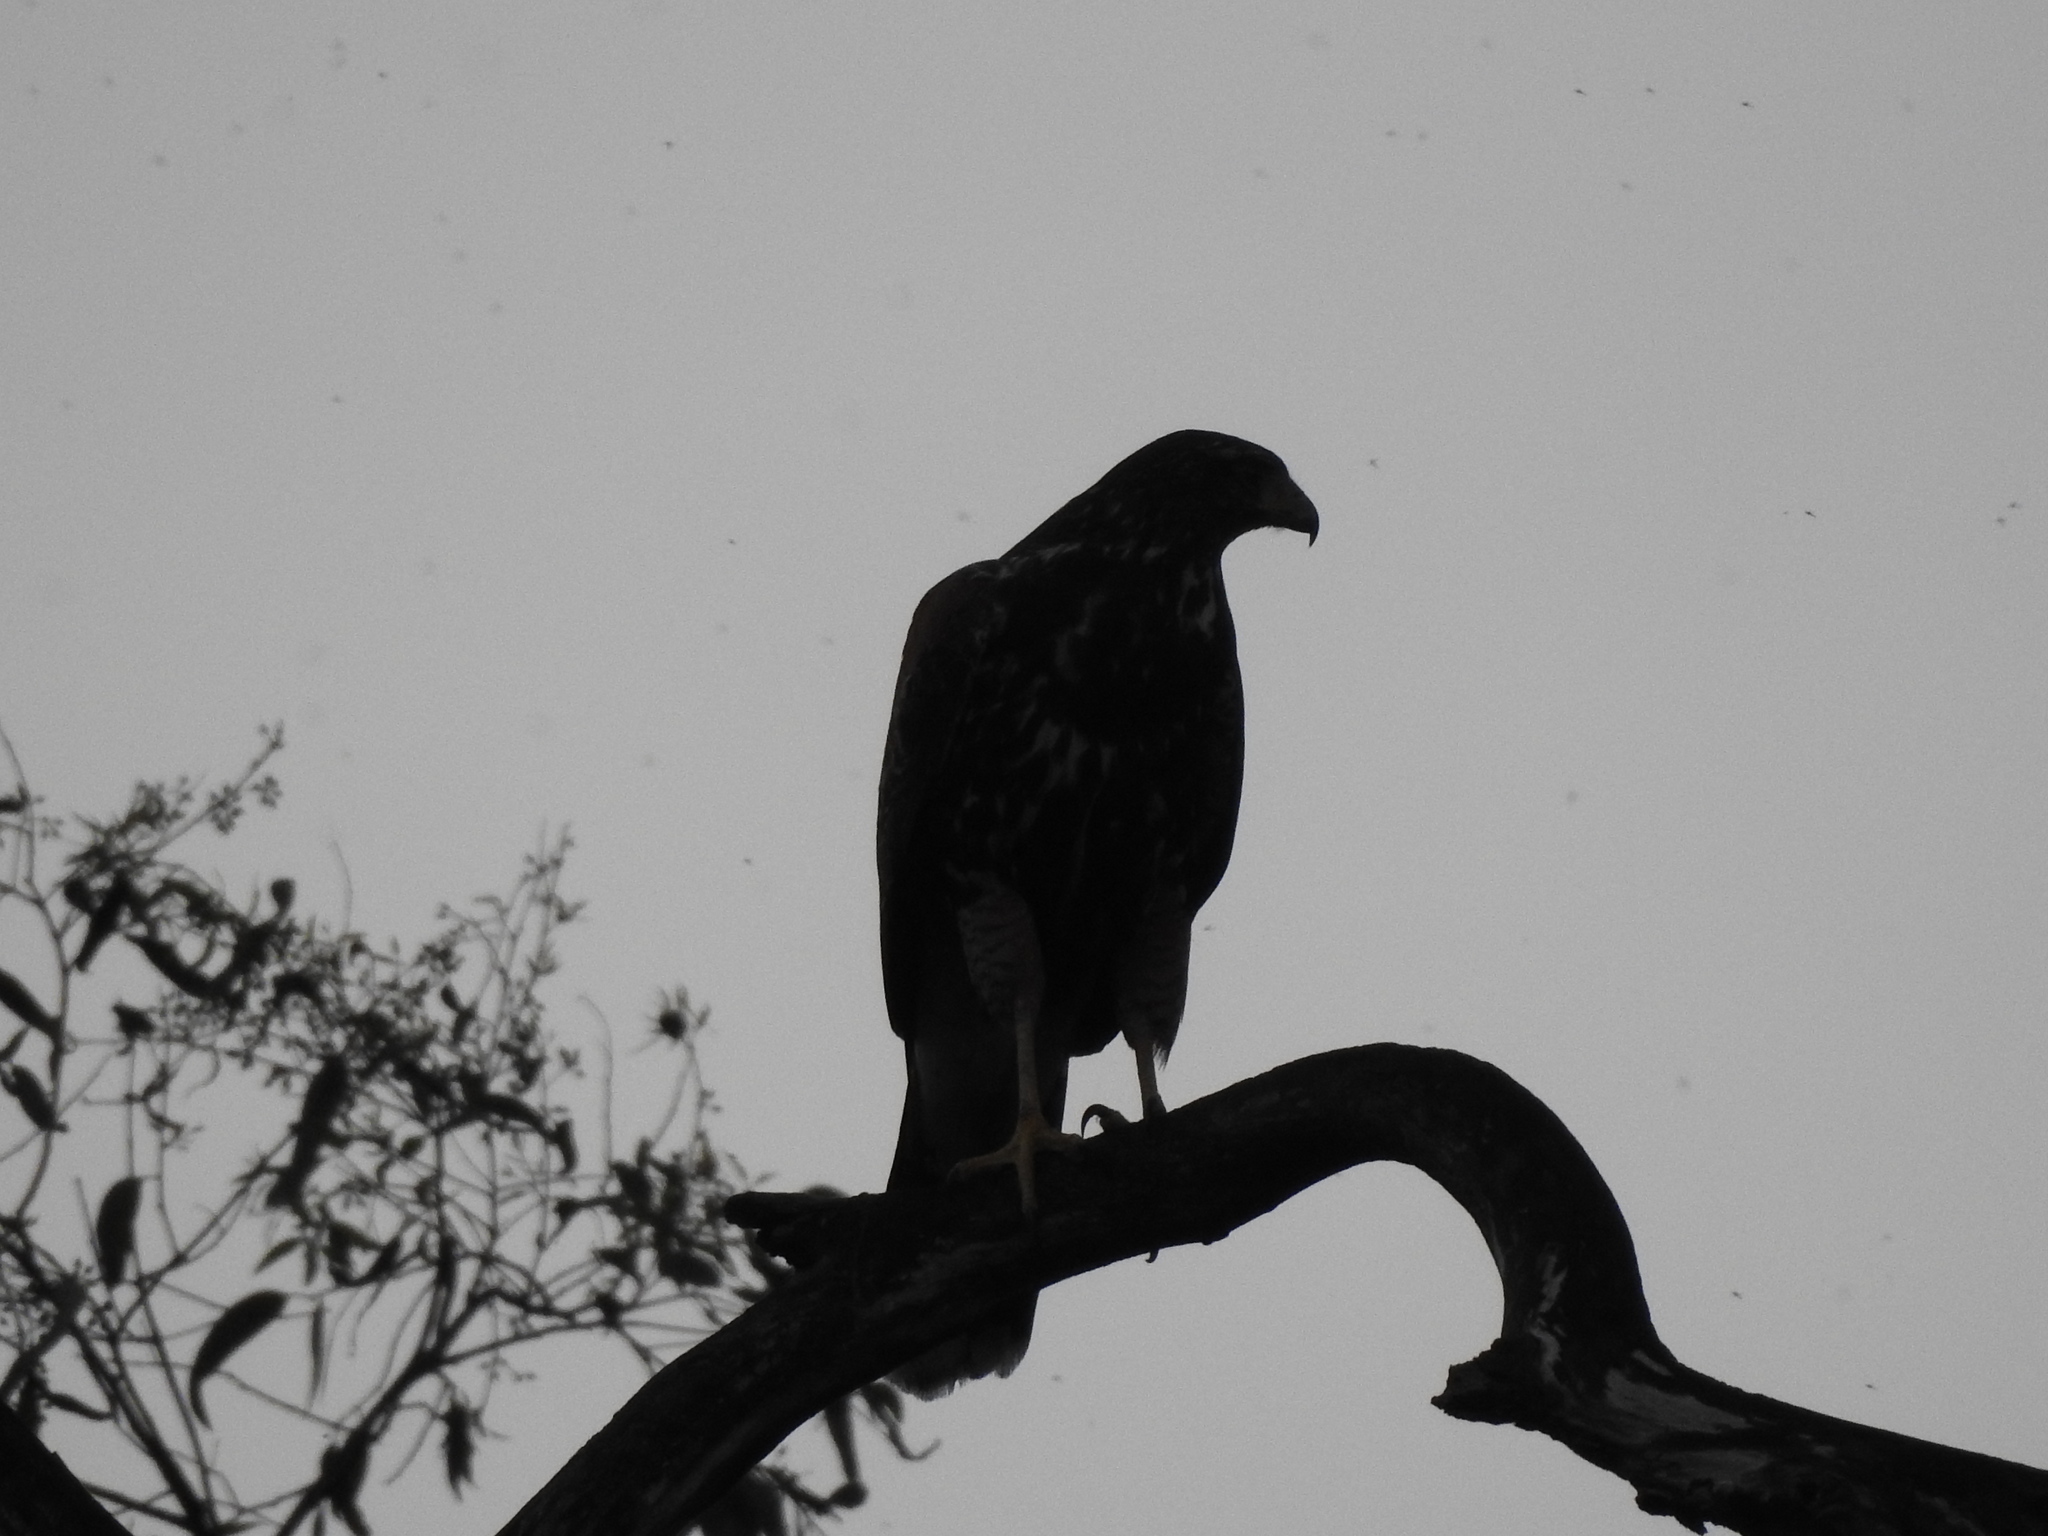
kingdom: Animalia
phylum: Chordata
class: Aves
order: Accipitriformes
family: Accipitridae
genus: Parabuteo
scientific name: Parabuteo unicinctus
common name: Harris's hawk
